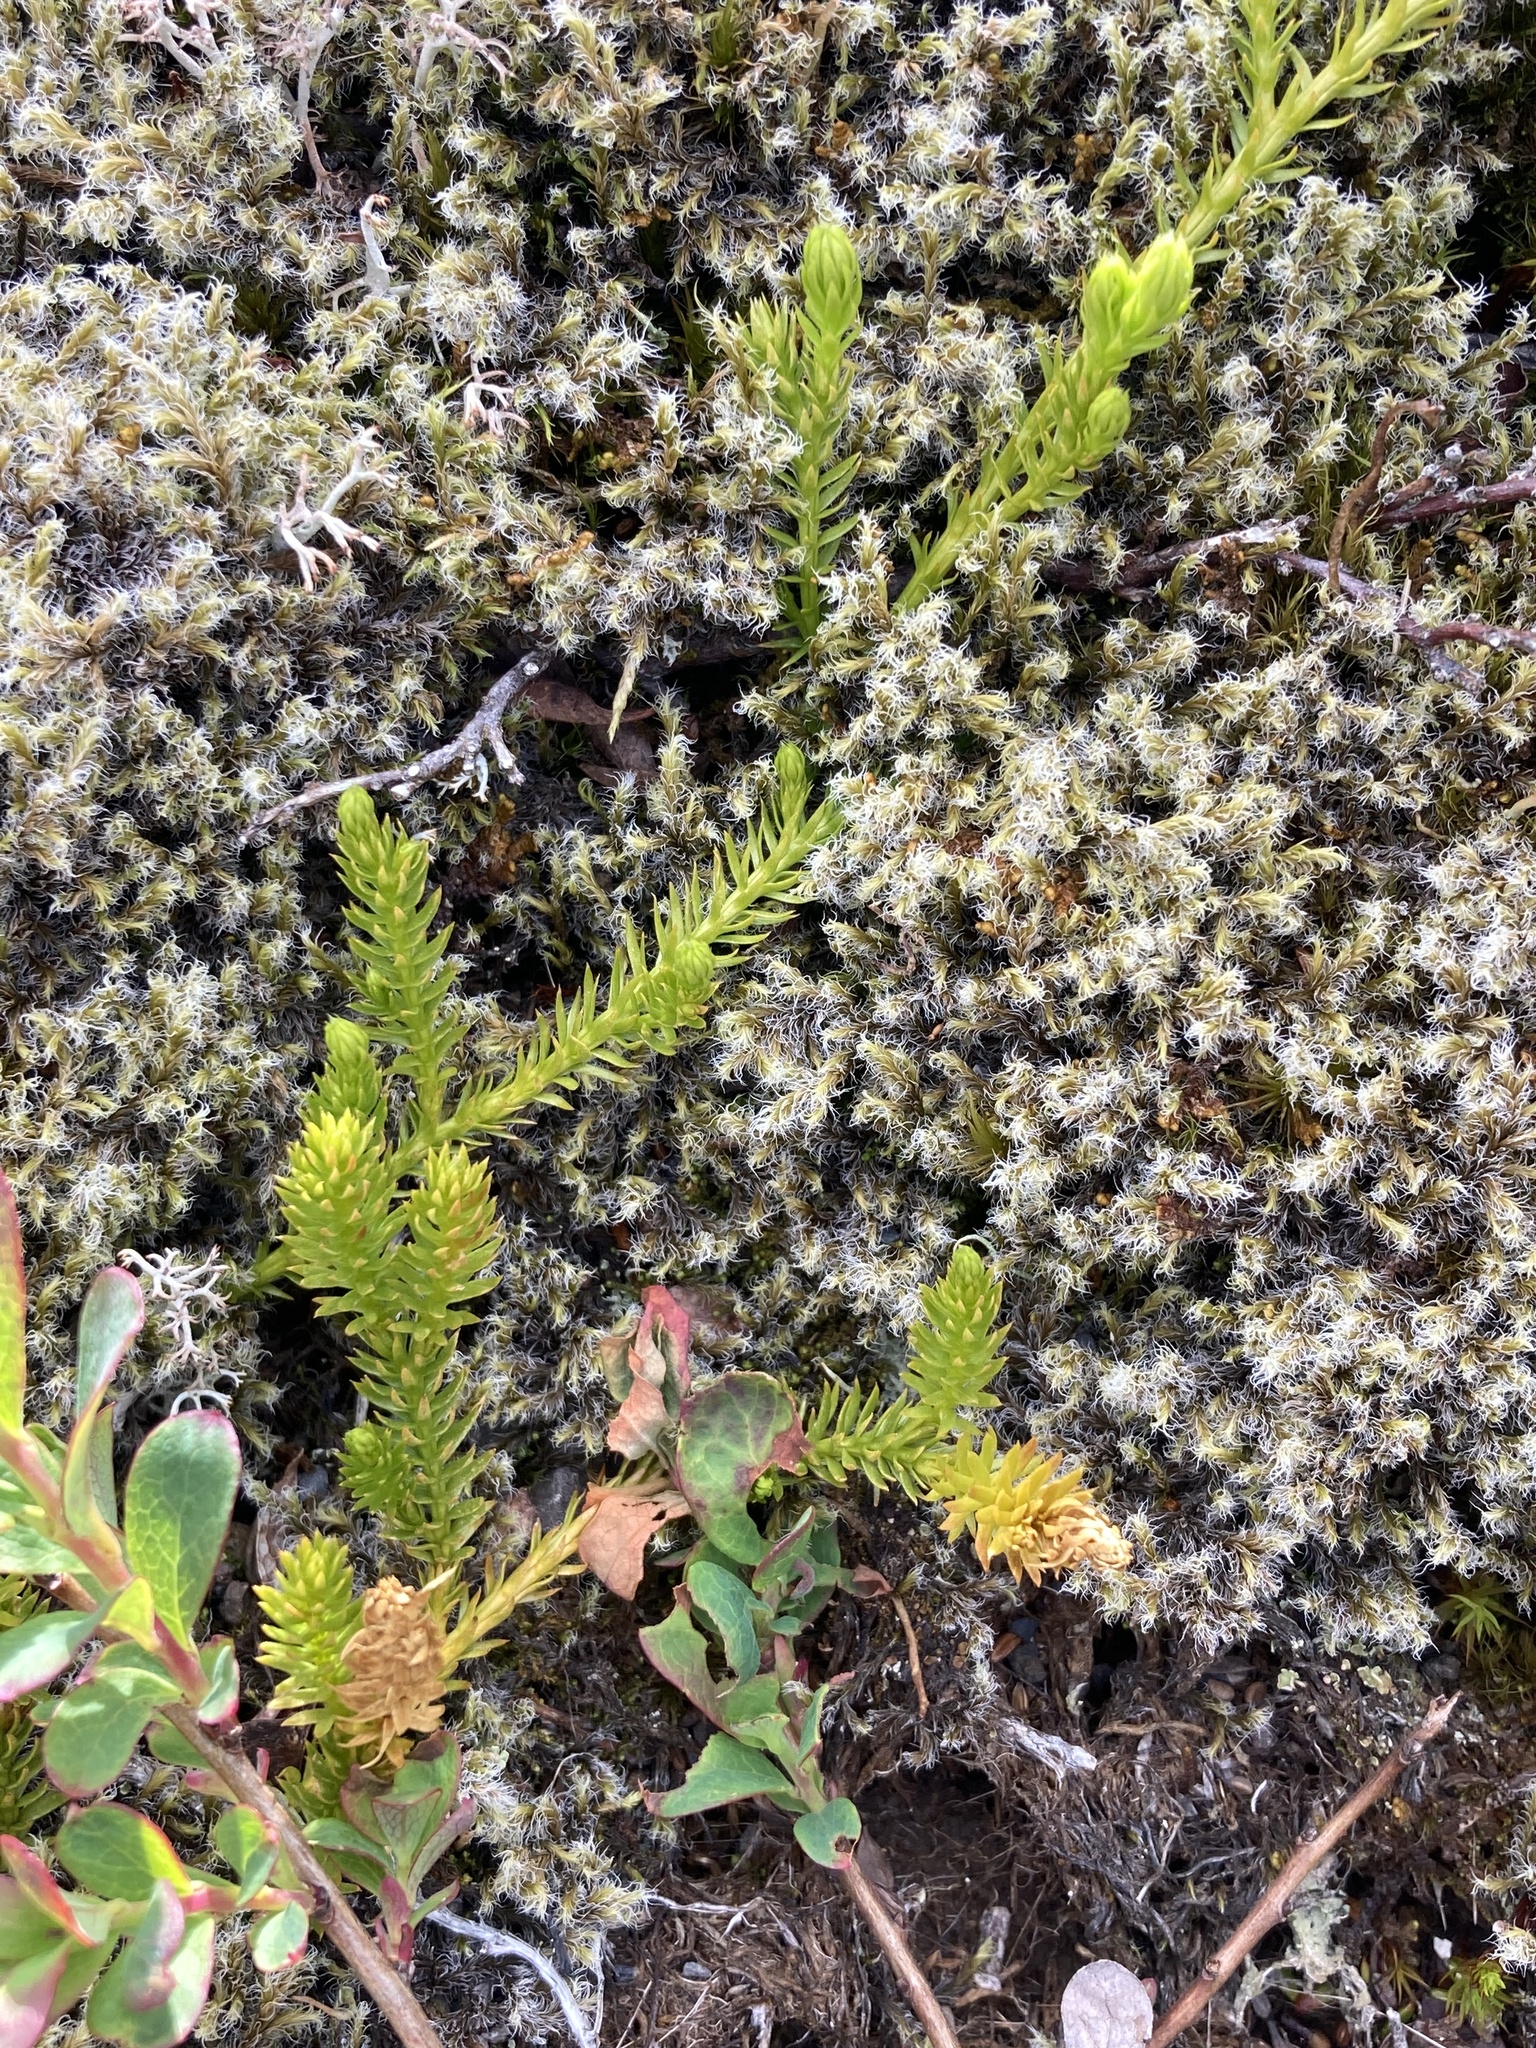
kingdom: Plantae
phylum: Tracheophyta
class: Lycopodiopsida
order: Lycopodiales
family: Lycopodiaceae
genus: Spinulum
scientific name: Spinulum annotinum
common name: Interrupted club-moss
